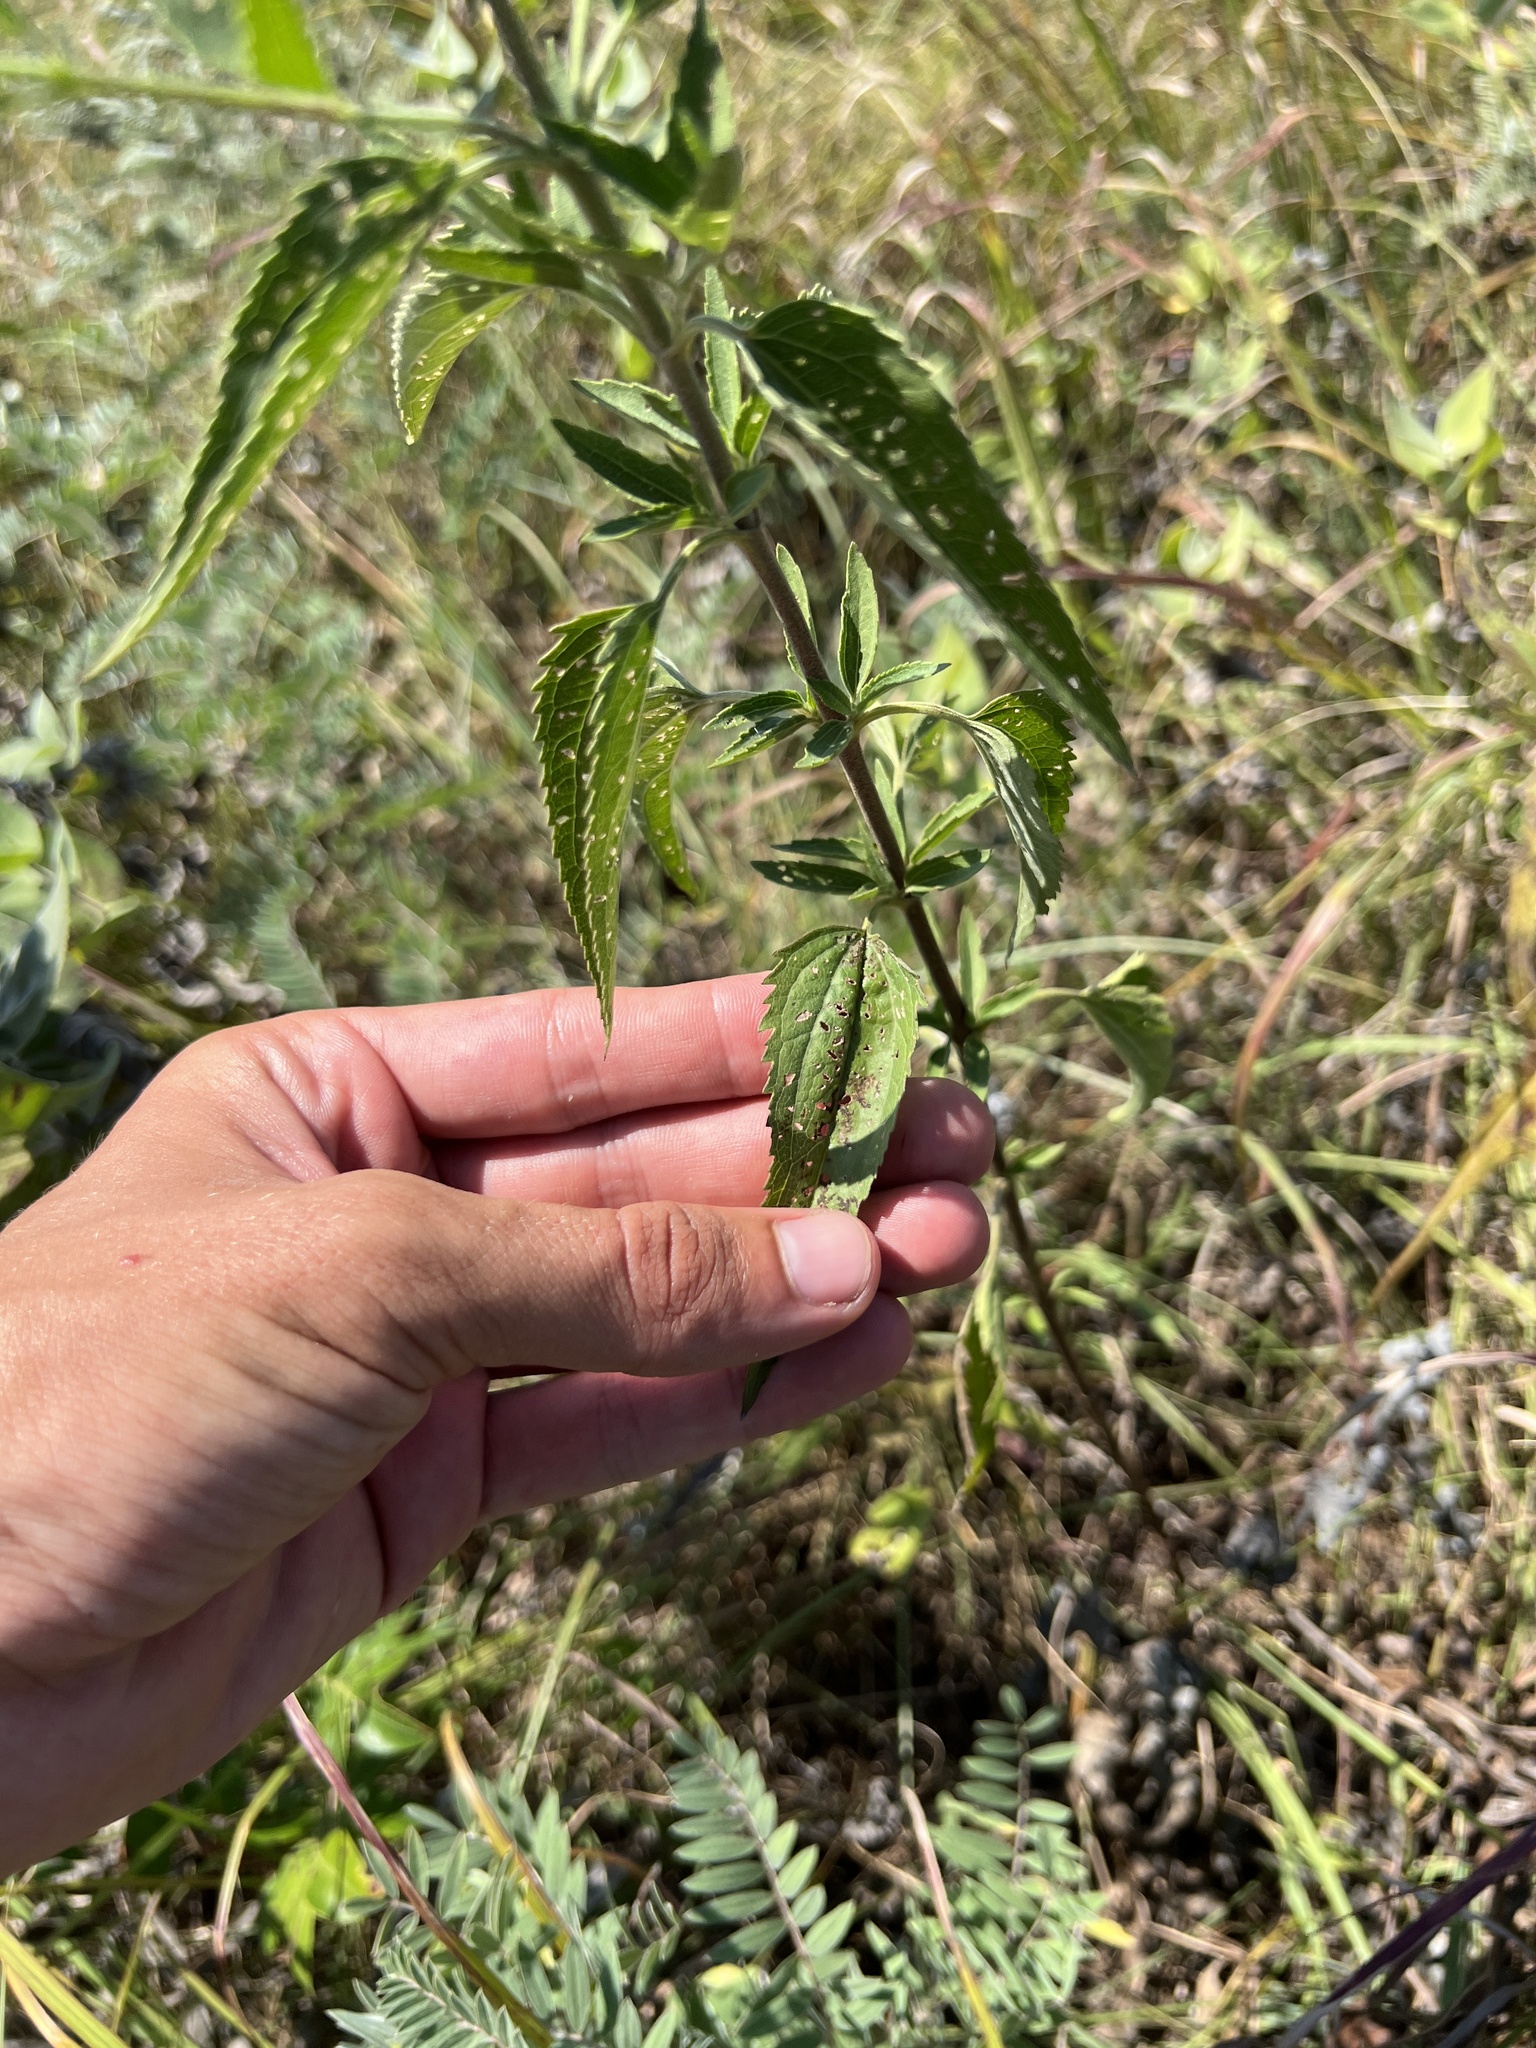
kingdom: Plantae
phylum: Tracheophyta
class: Magnoliopsida
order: Asterales
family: Asteraceae
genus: Eupatorium
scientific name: Eupatorium serotinum
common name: Late boneset
